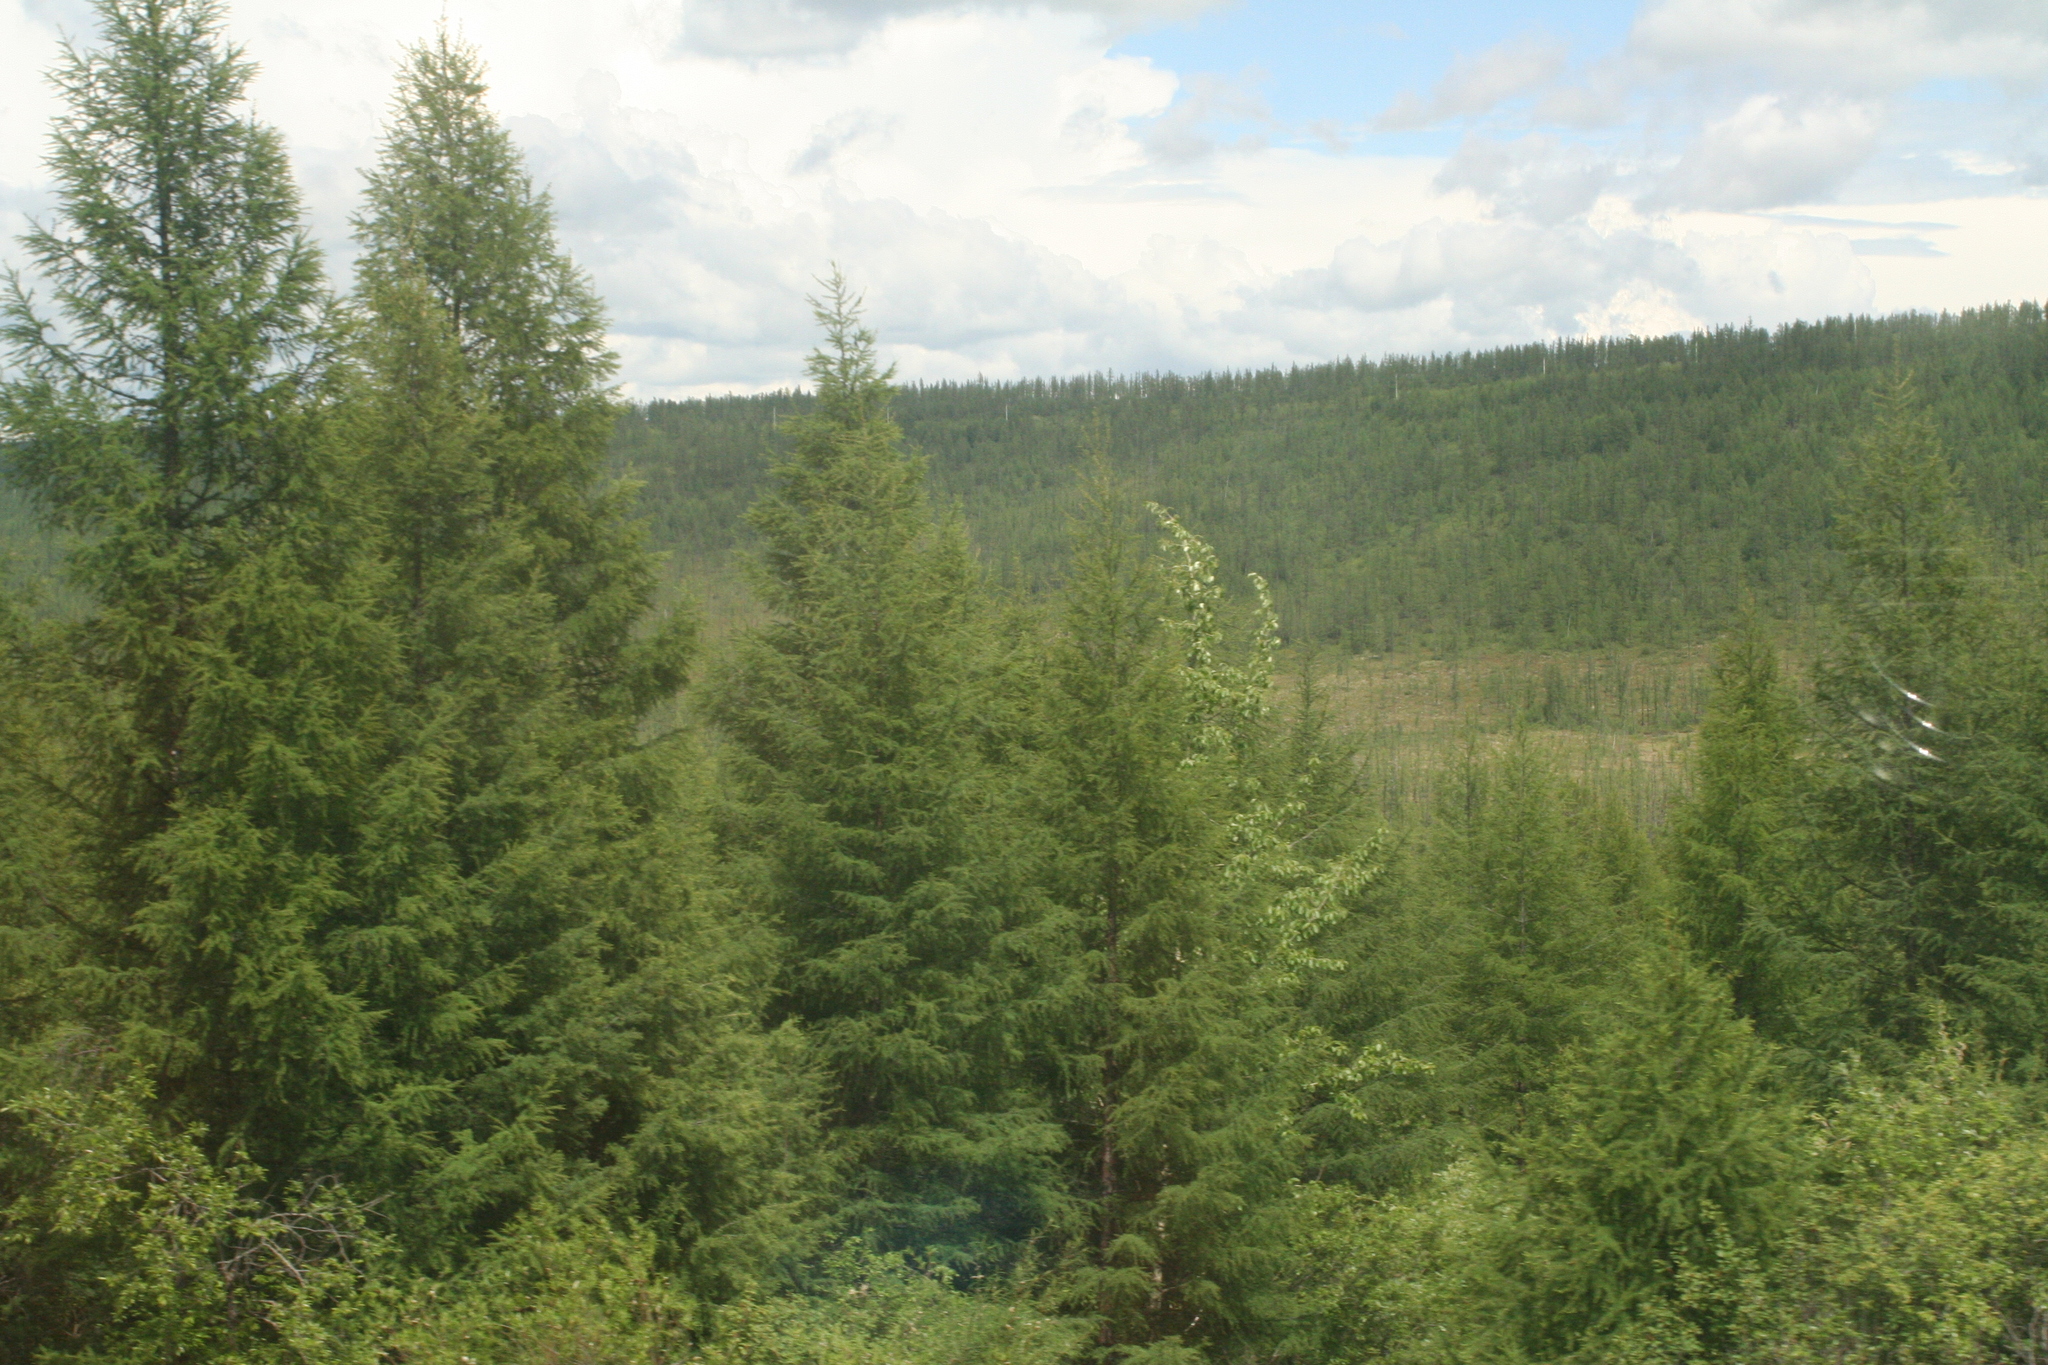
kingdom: Plantae
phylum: Tracheophyta
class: Pinopsida
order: Pinales
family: Pinaceae
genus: Larix
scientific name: Larix gmelinii
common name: Dahurian larch
